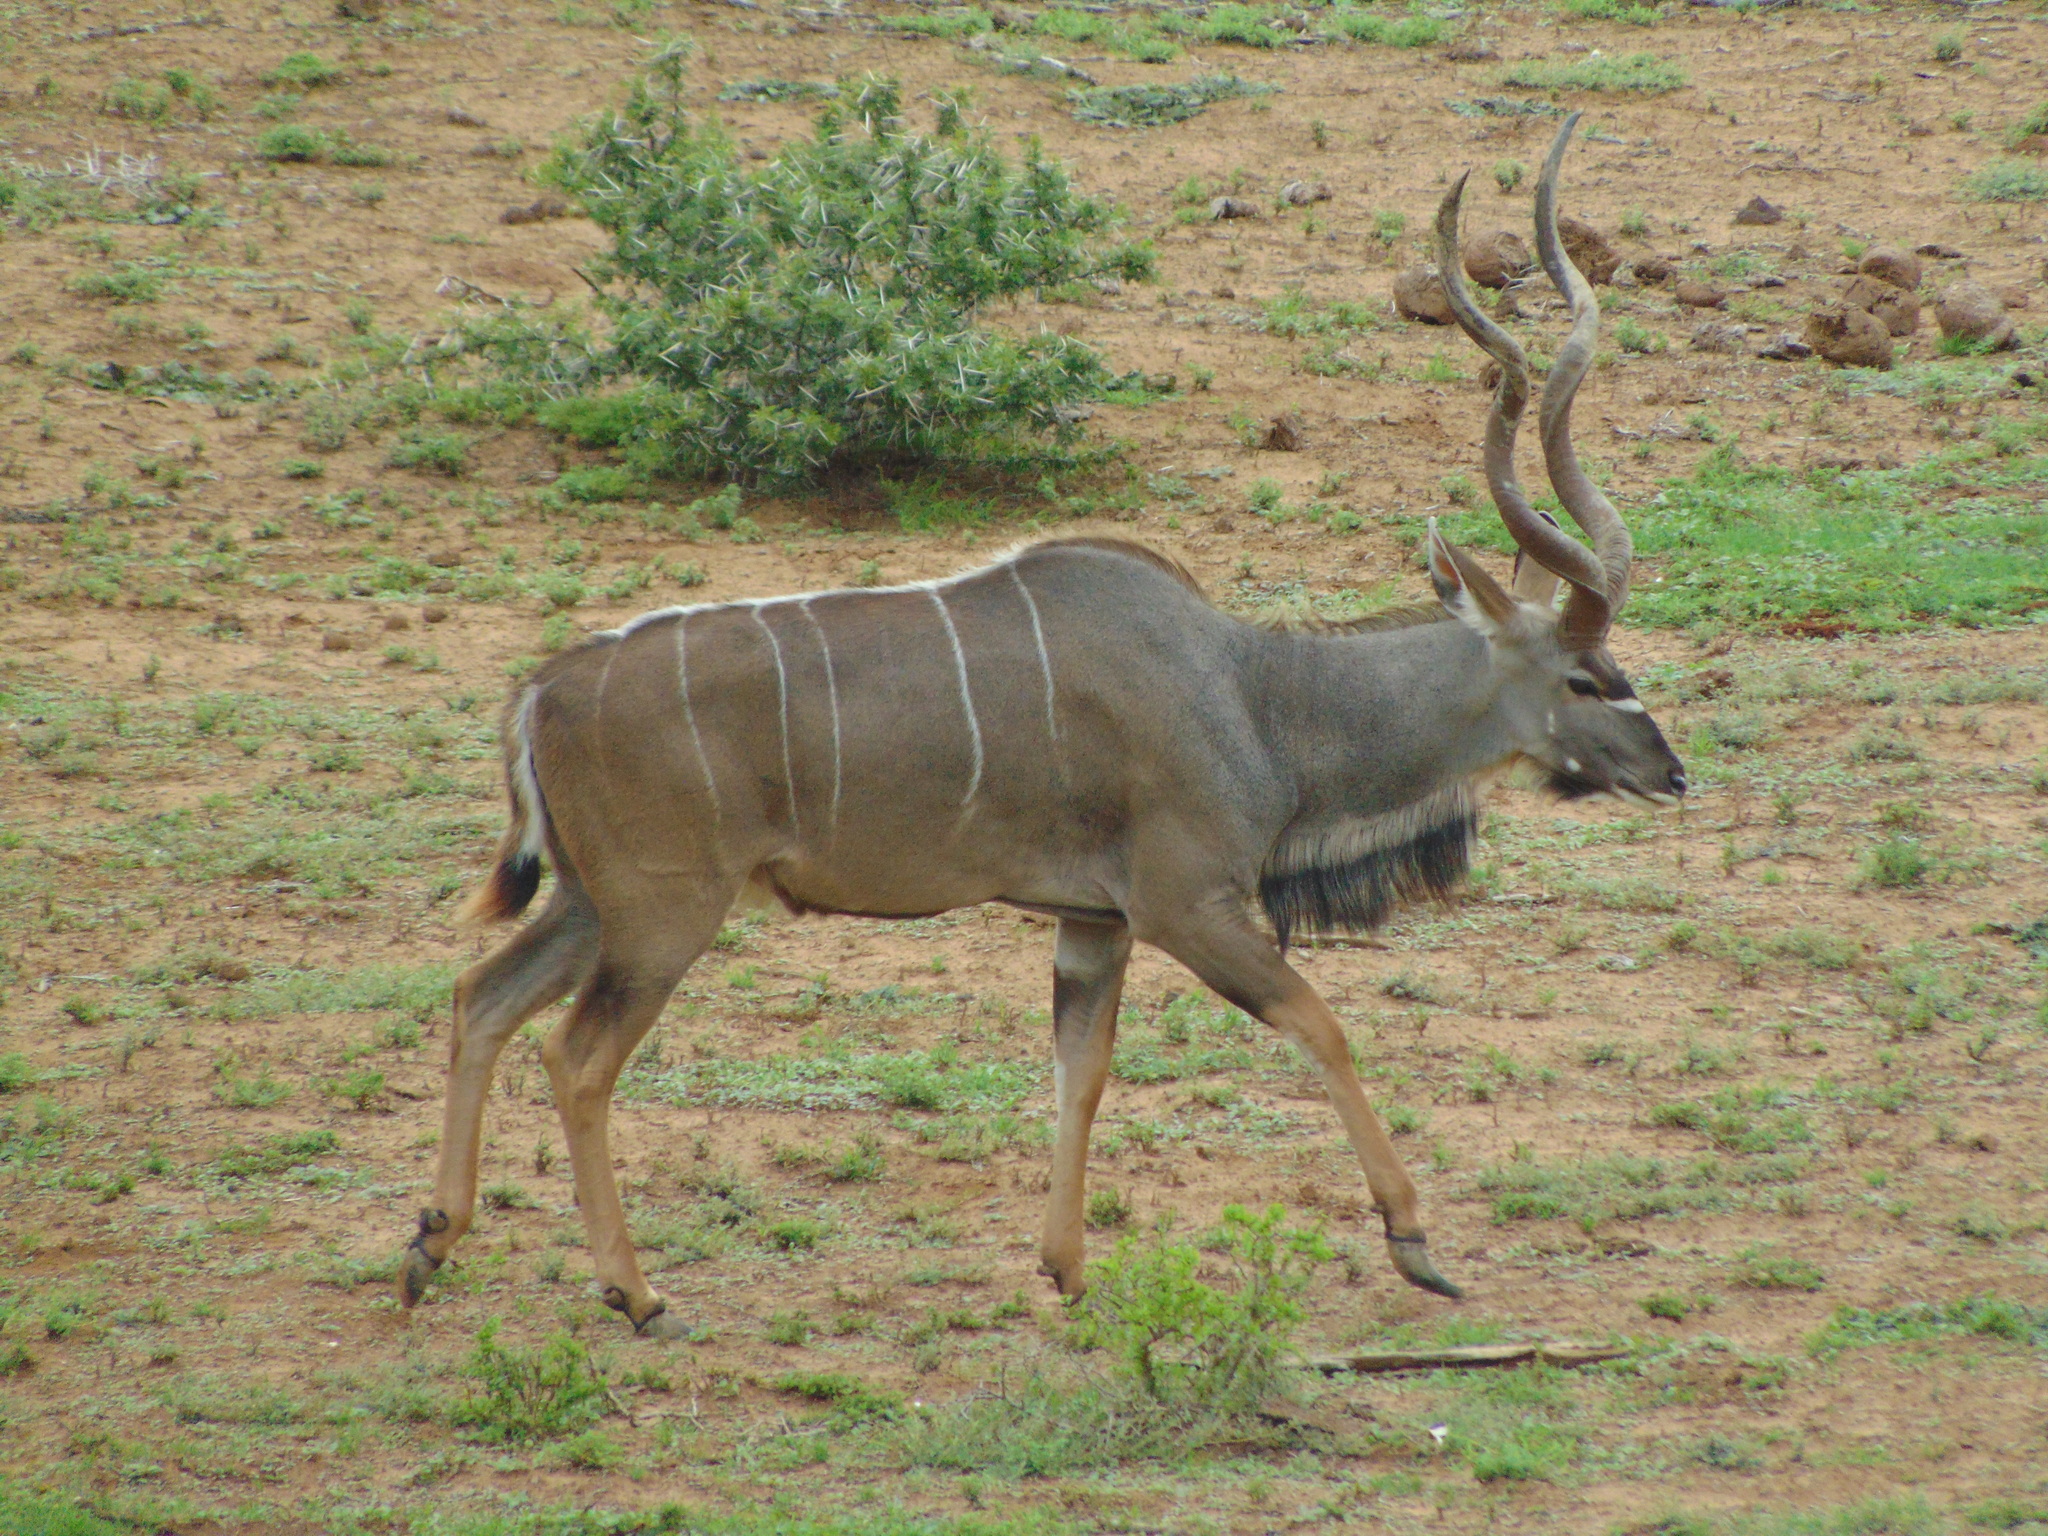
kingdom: Animalia
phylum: Chordata
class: Mammalia
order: Artiodactyla
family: Bovidae
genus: Tragelaphus
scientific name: Tragelaphus strepsiceros
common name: Greater kudu
